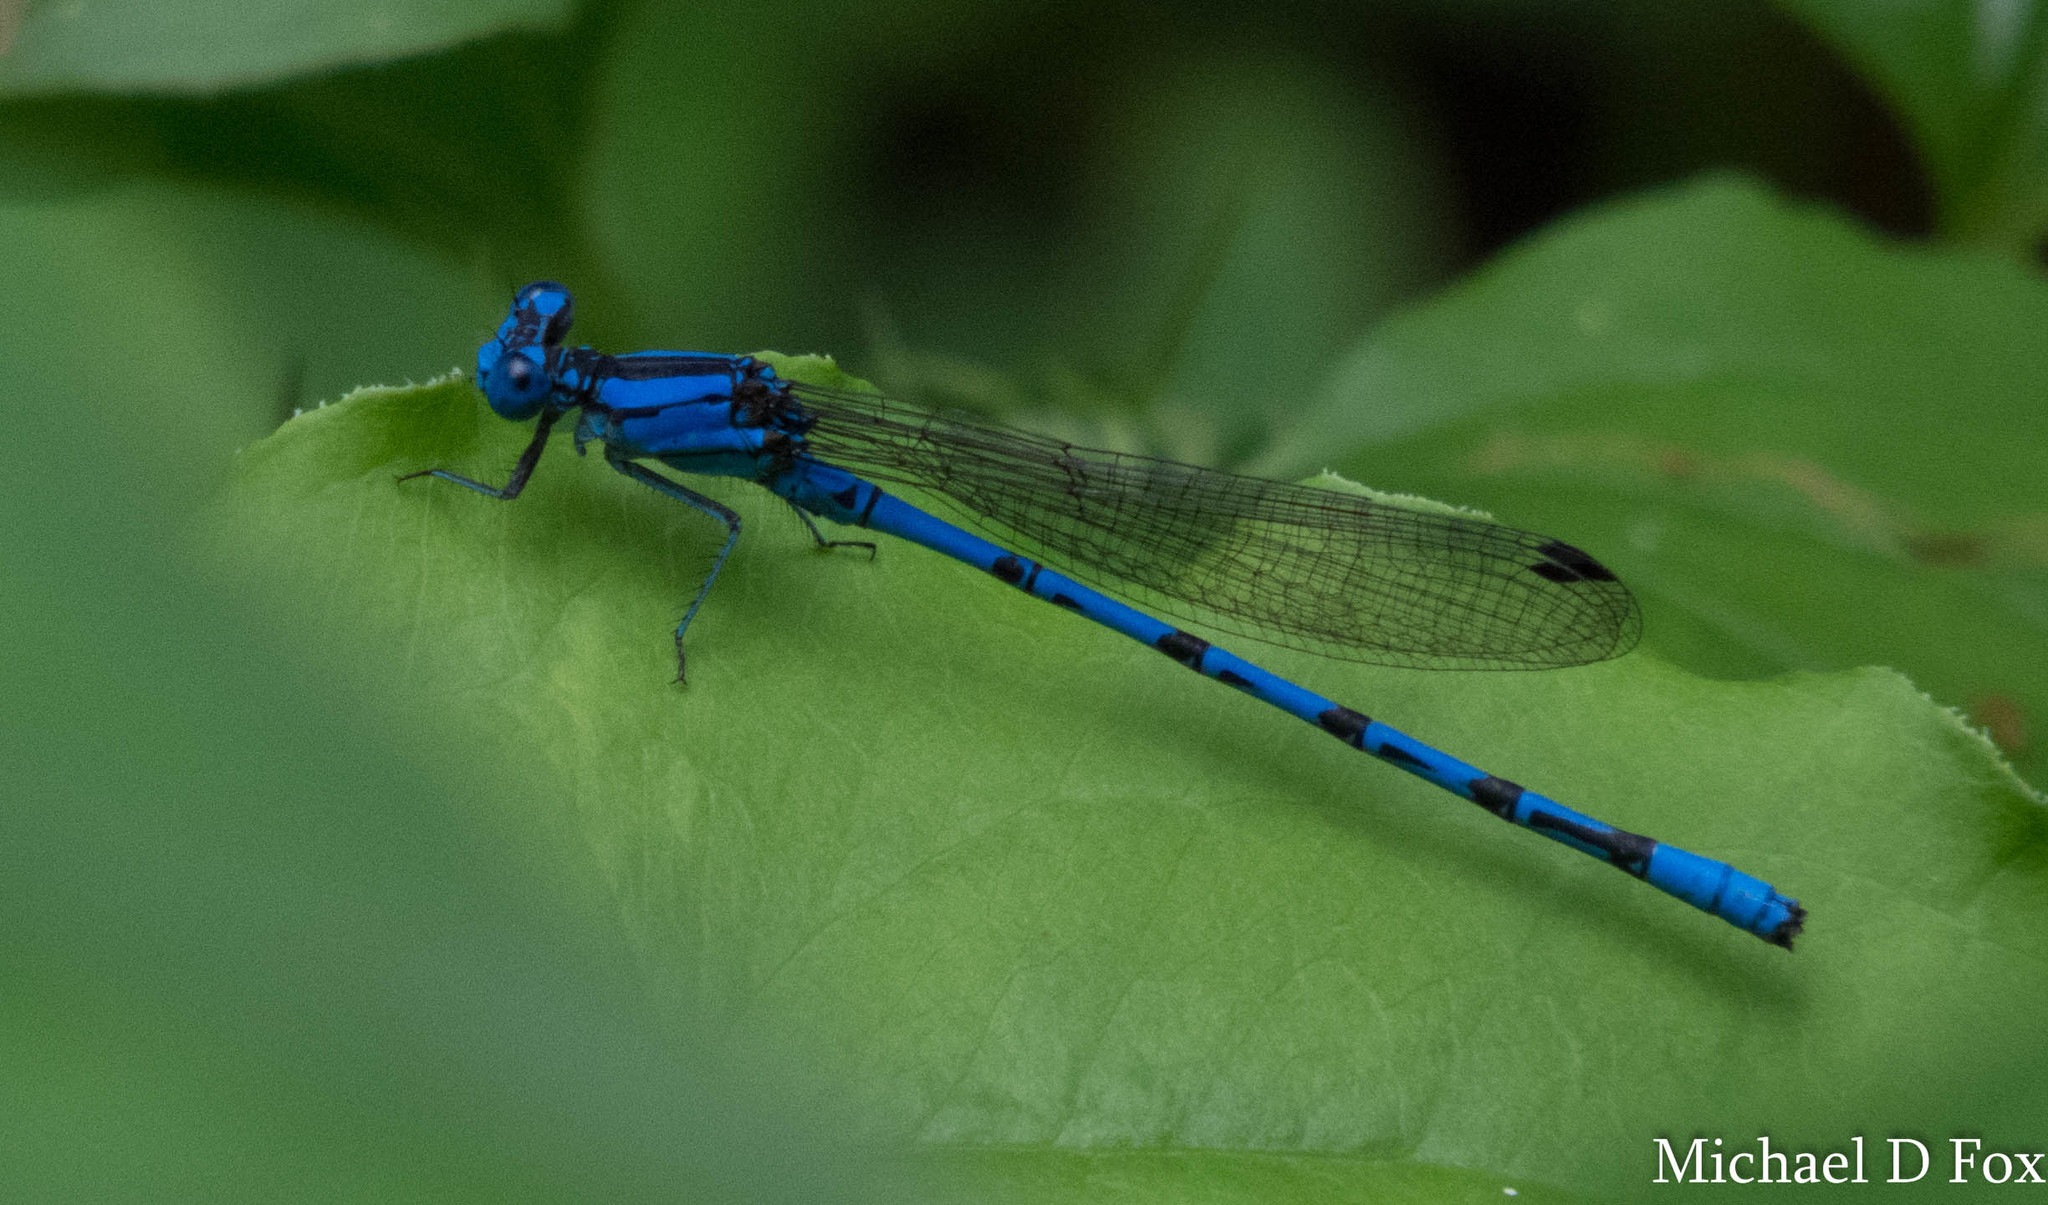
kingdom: Animalia
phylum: Arthropoda
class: Insecta
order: Odonata
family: Coenagrionidae
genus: Argia
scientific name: Argia funebris
